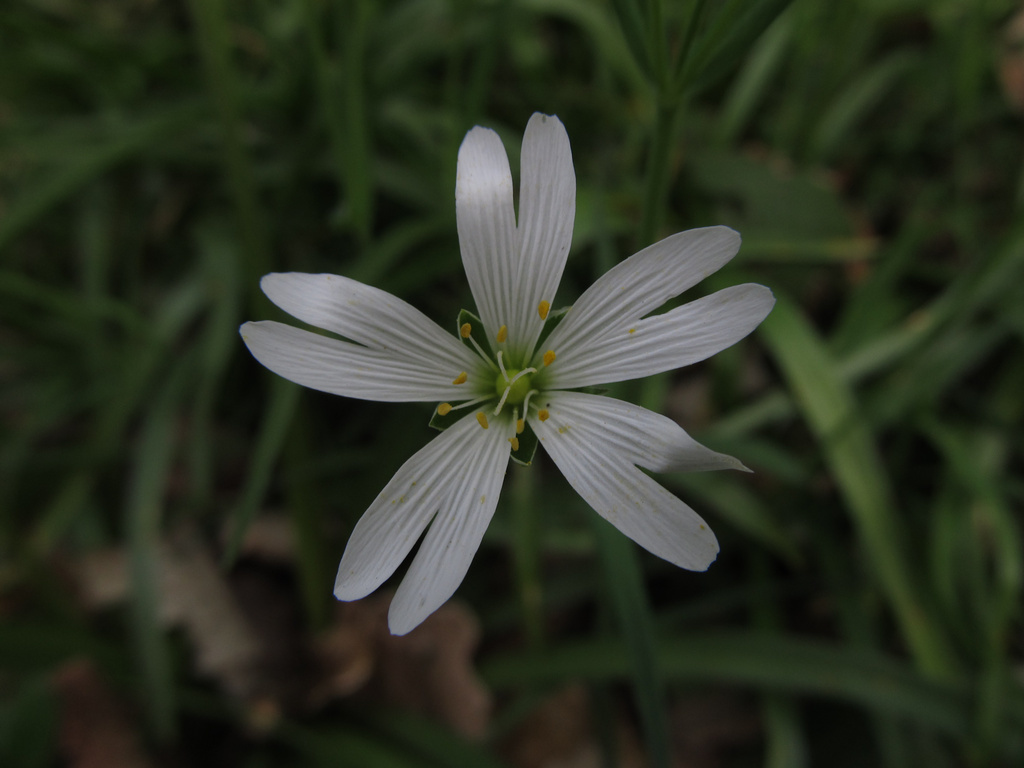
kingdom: Plantae
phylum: Tracheophyta
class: Magnoliopsida
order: Caryophyllales
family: Caryophyllaceae
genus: Rabelera
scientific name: Rabelera holostea
